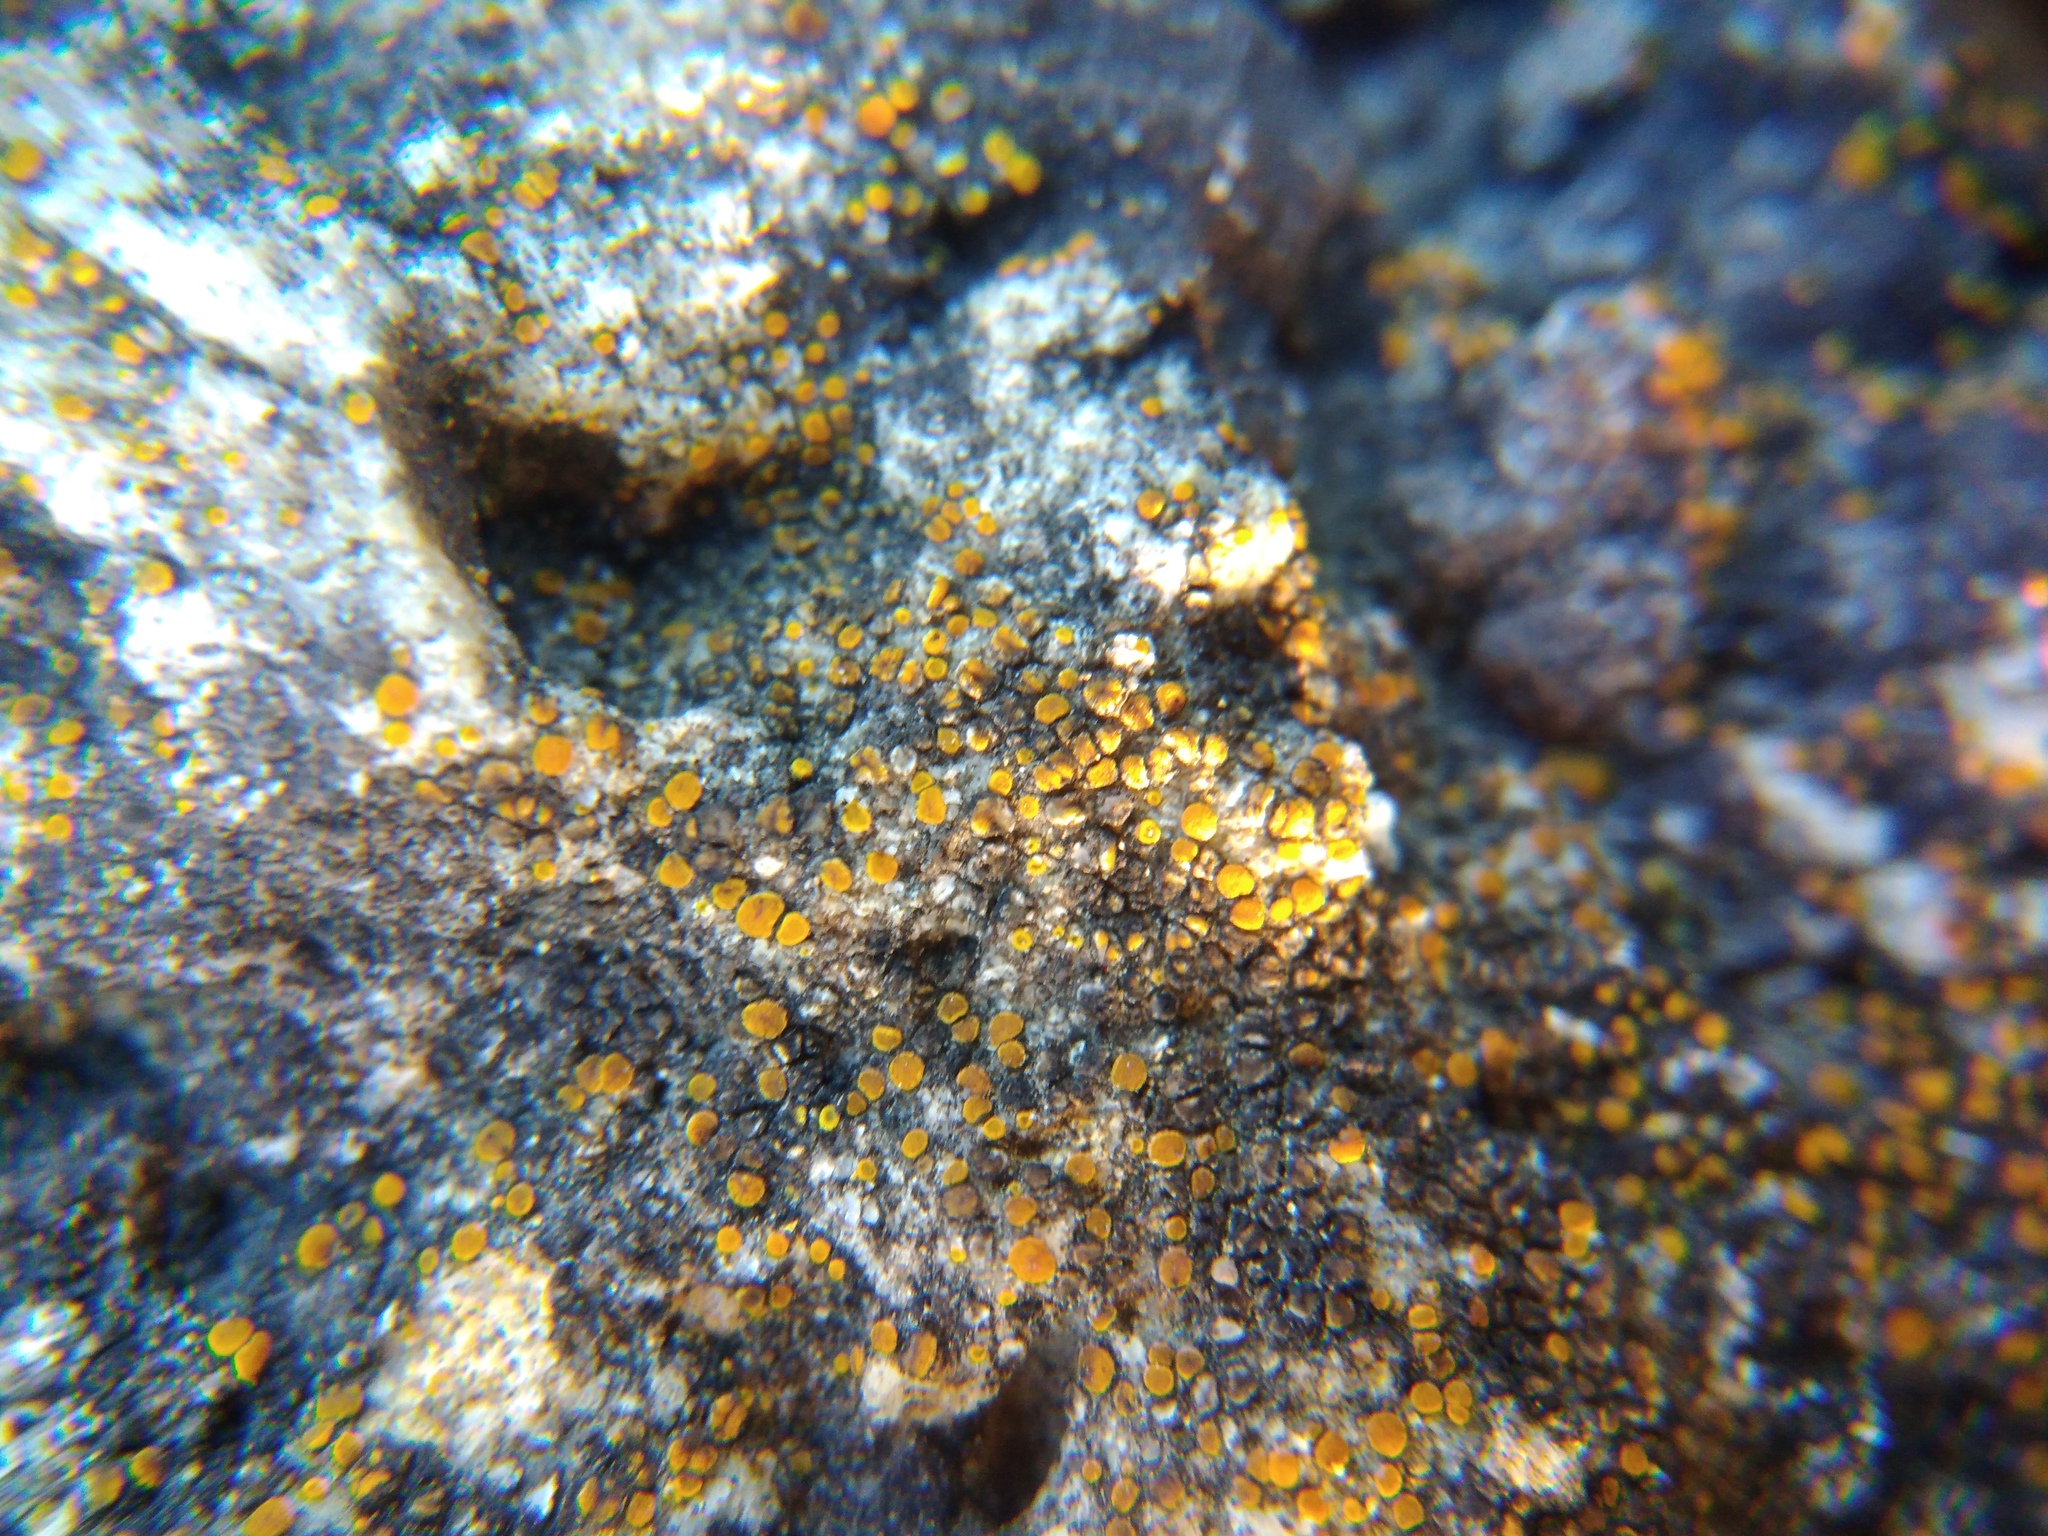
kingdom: Fungi
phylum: Ascomycota
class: Lecanoromycetes
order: Teloschistales
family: Teloschistaceae
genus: Xanthocarpia
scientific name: Xanthocarpia crenulatella
